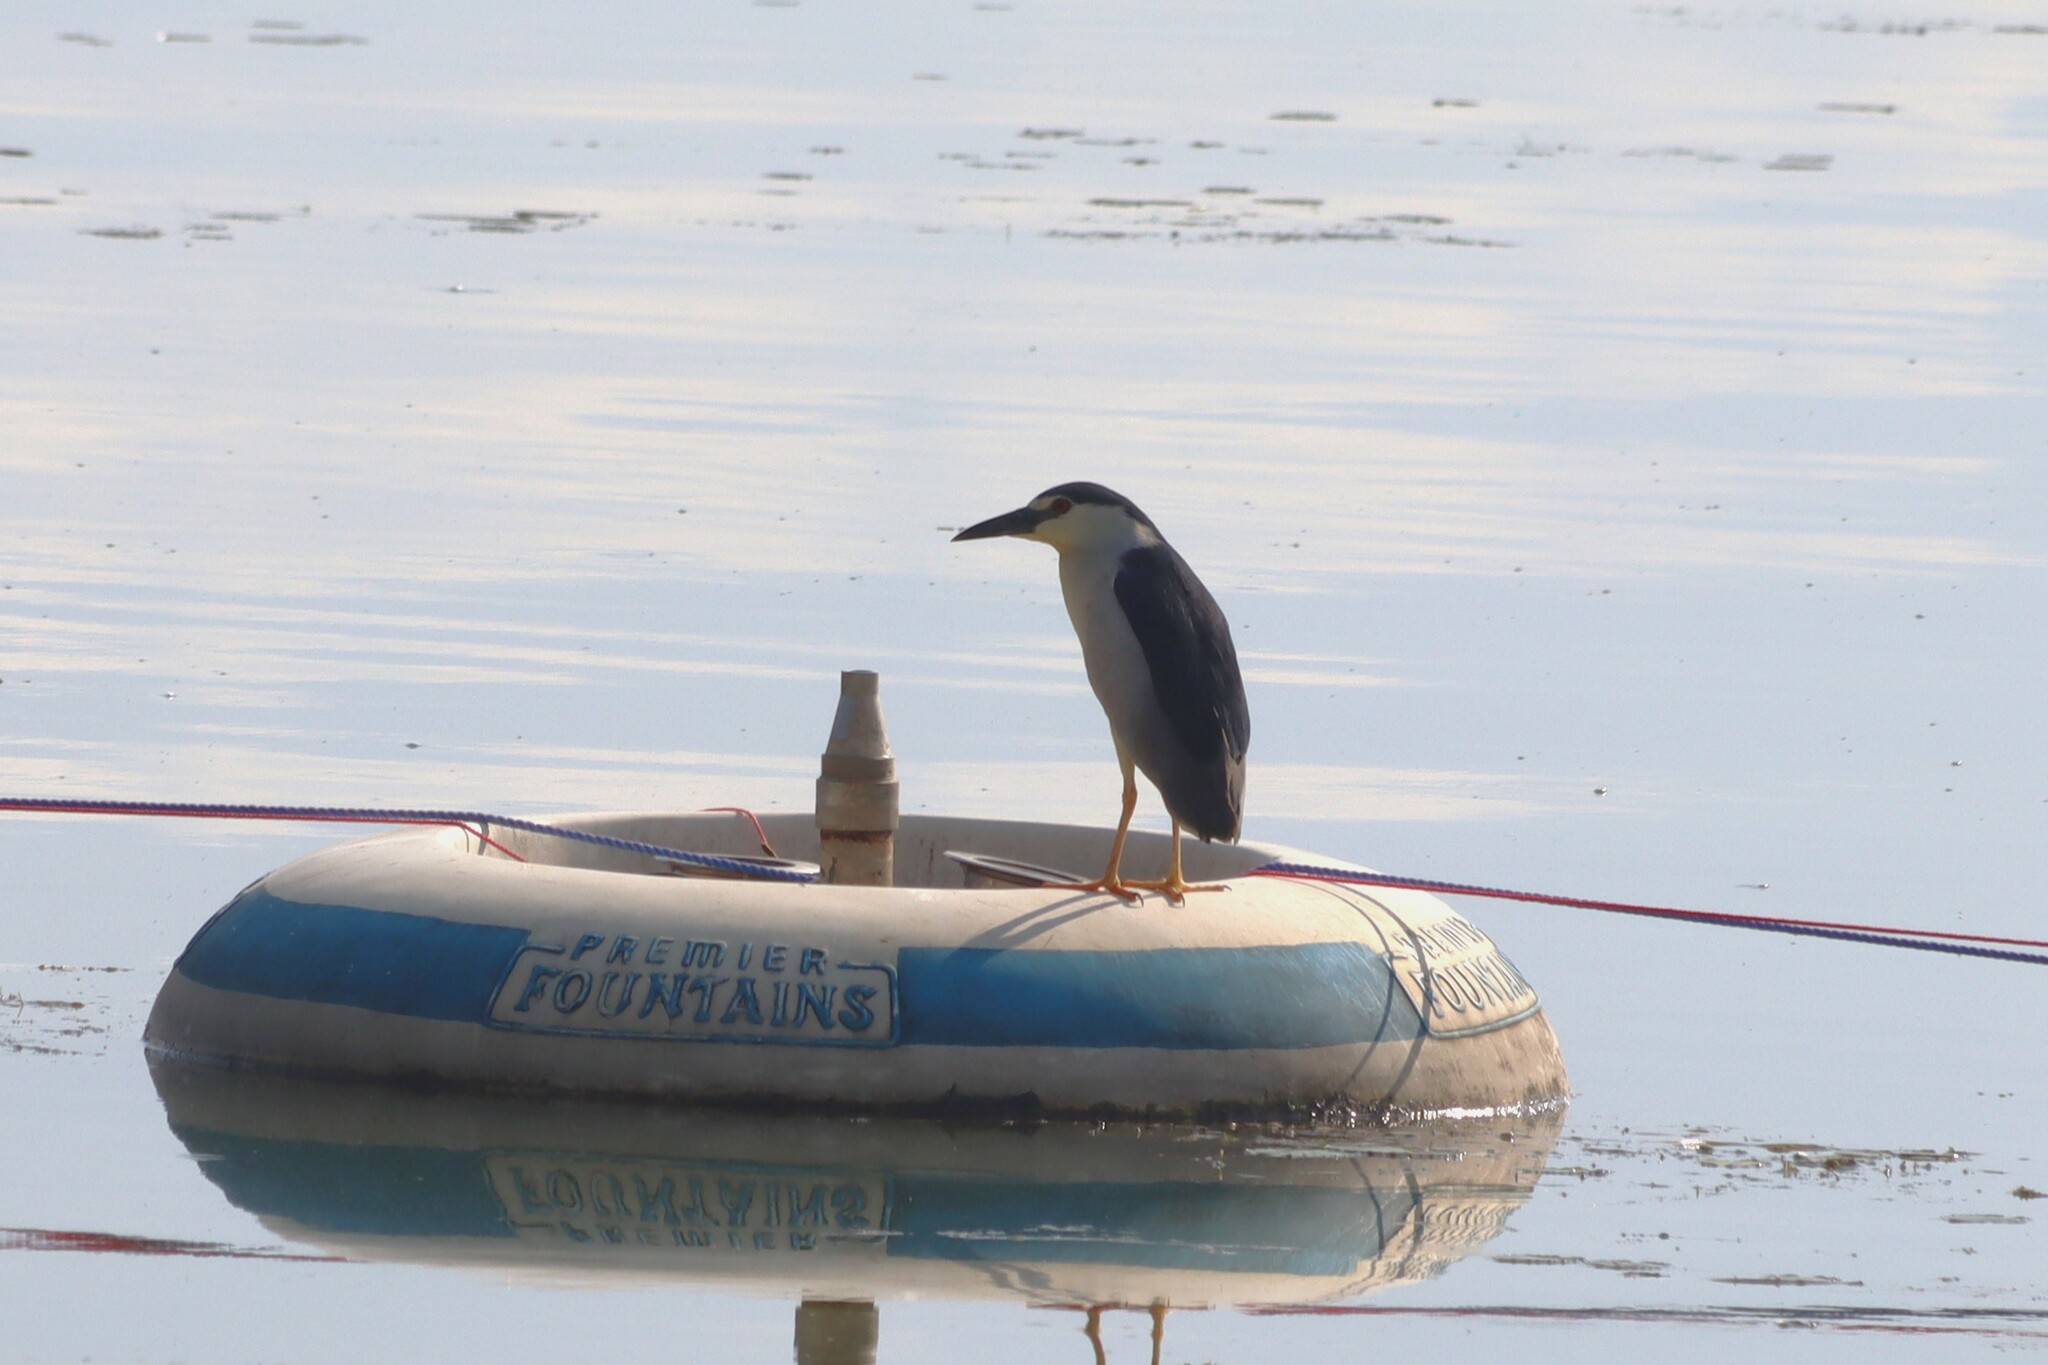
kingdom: Animalia
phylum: Chordata
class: Aves
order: Pelecaniformes
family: Ardeidae
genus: Nycticorax
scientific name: Nycticorax nycticorax
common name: Black-crowned night heron
